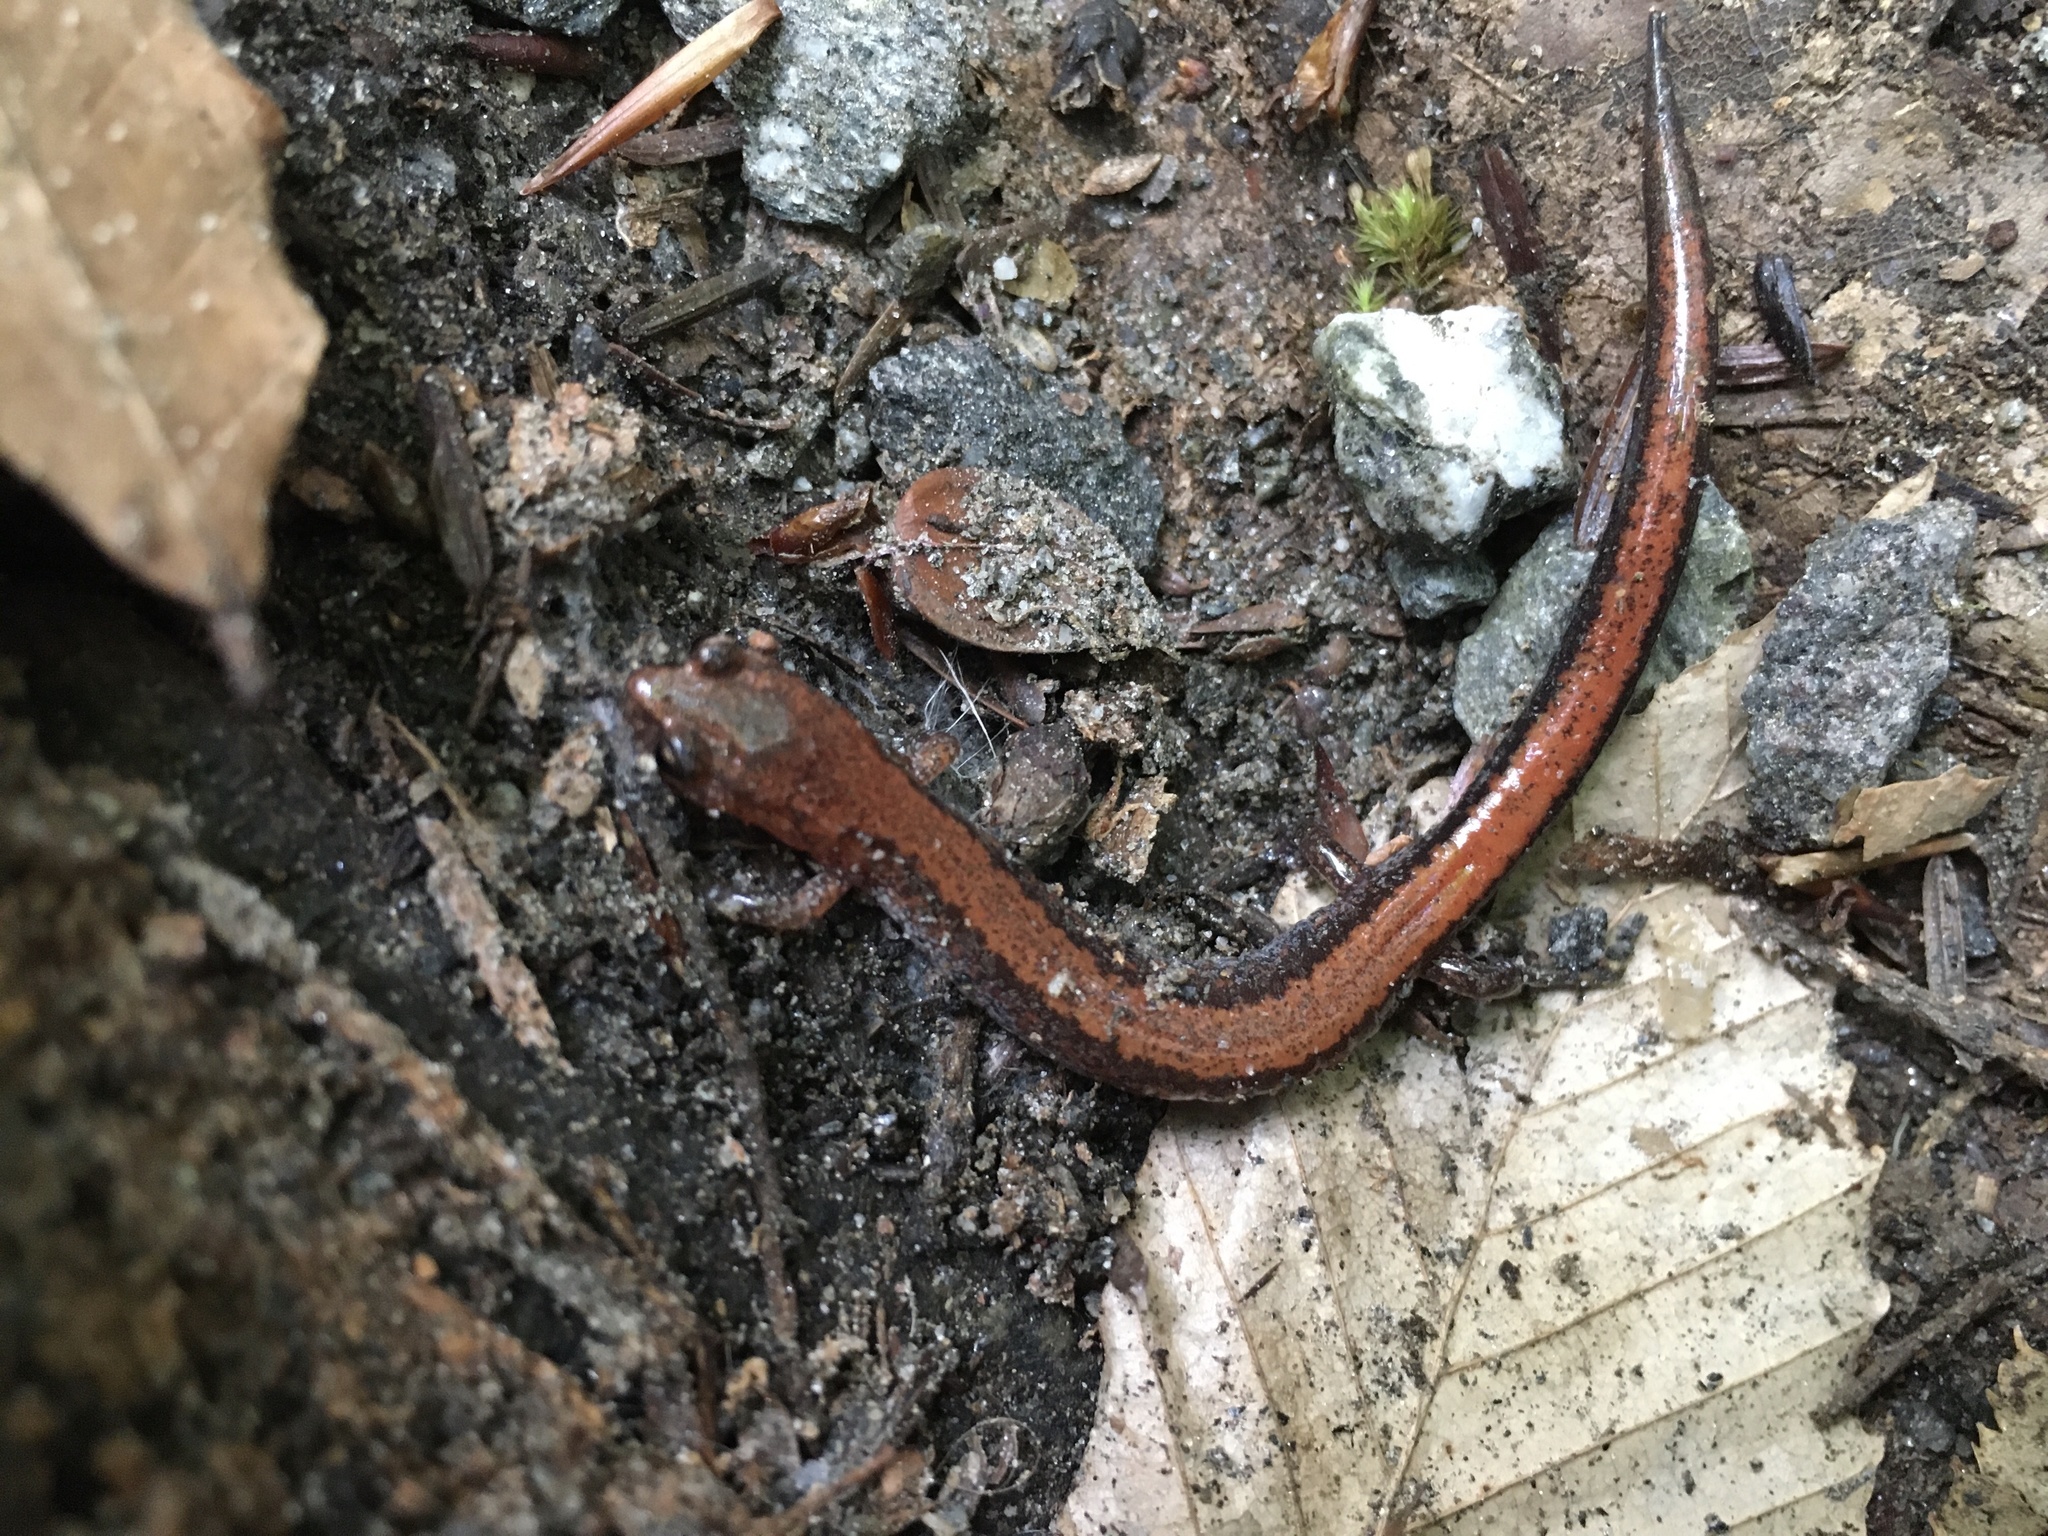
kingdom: Animalia
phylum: Chordata
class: Amphibia
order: Caudata
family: Plethodontidae
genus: Plethodon
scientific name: Plethodon cinereus
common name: Redback salamander
